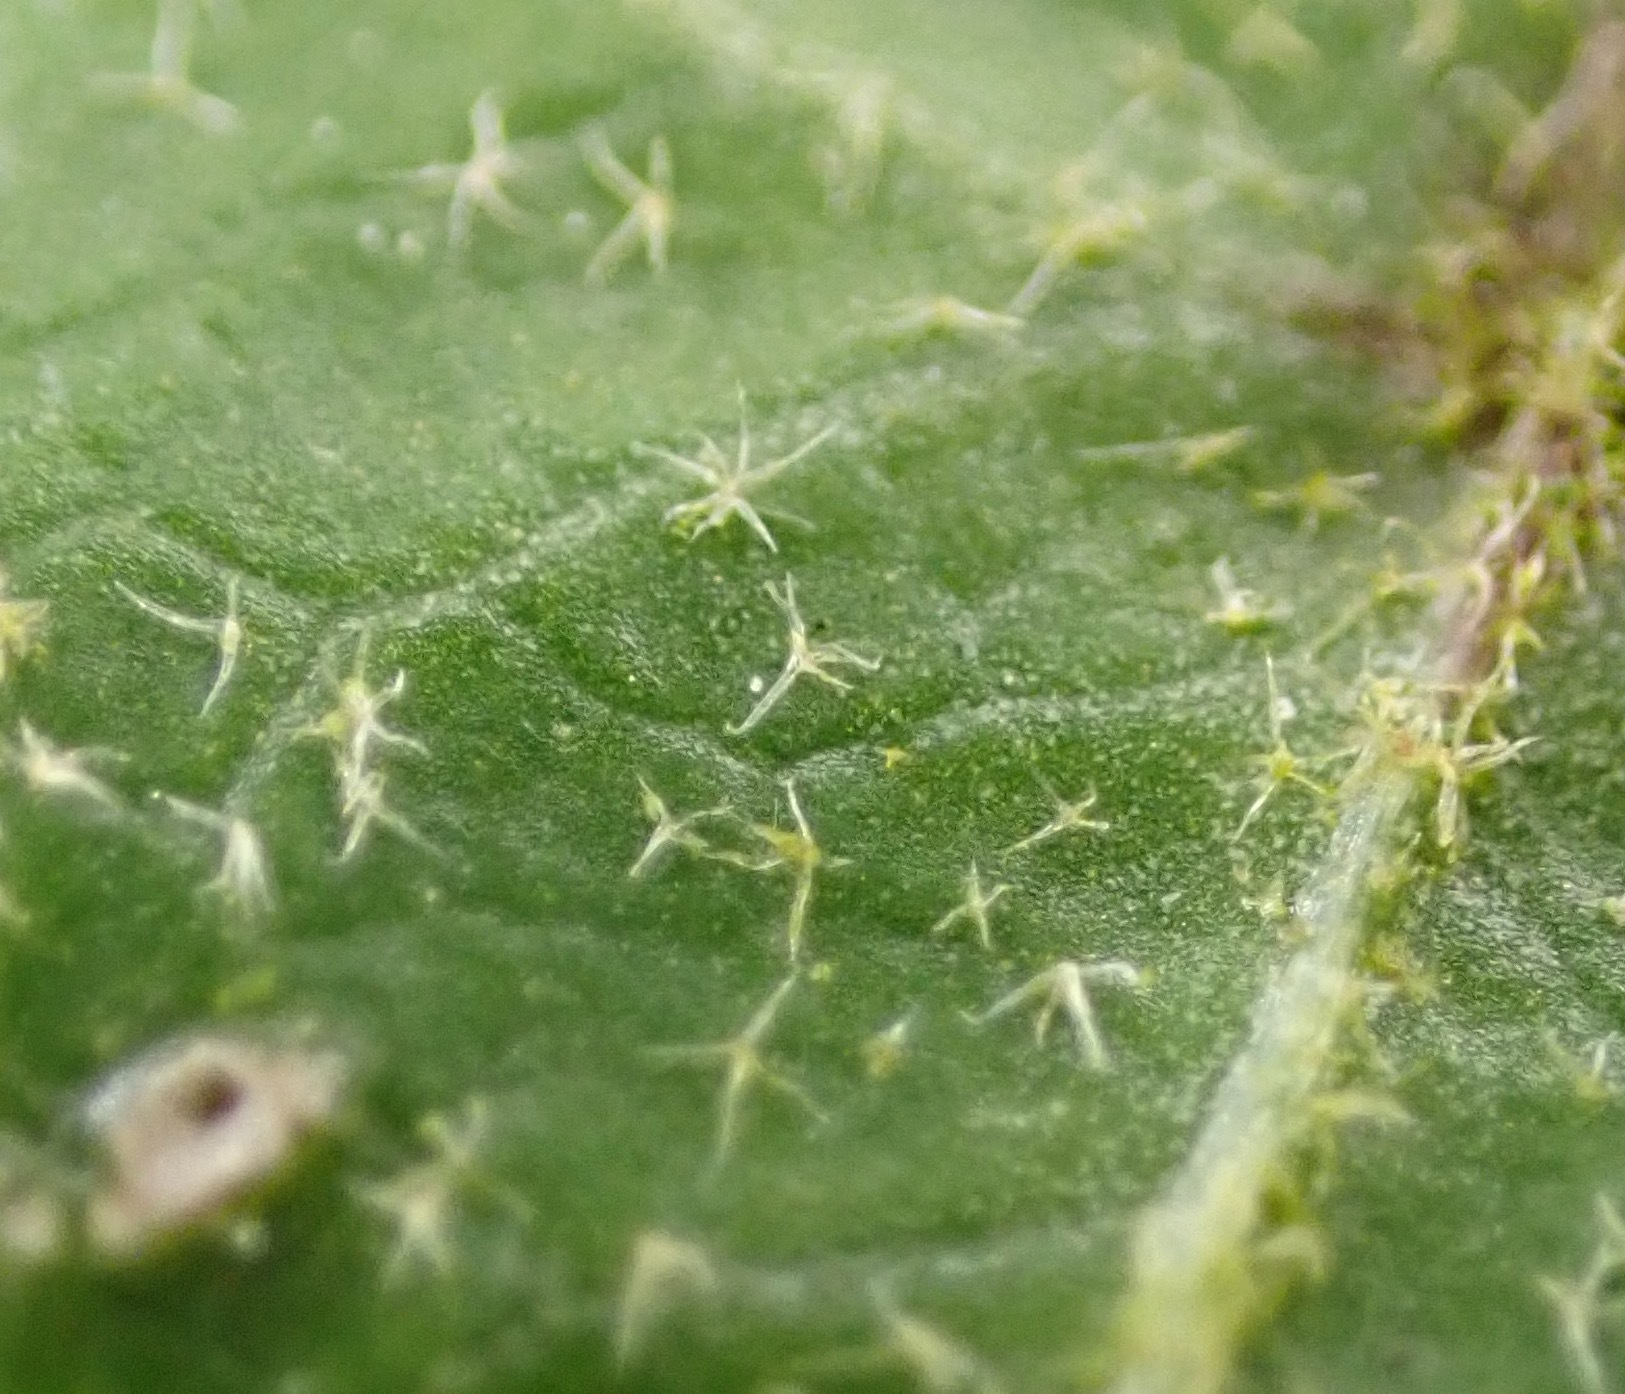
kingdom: Plantae
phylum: Tracheophyta
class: Magnoliopsida
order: Apiales
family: Araliaceae
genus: Hedera
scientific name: Hedera helix
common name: Ivy
